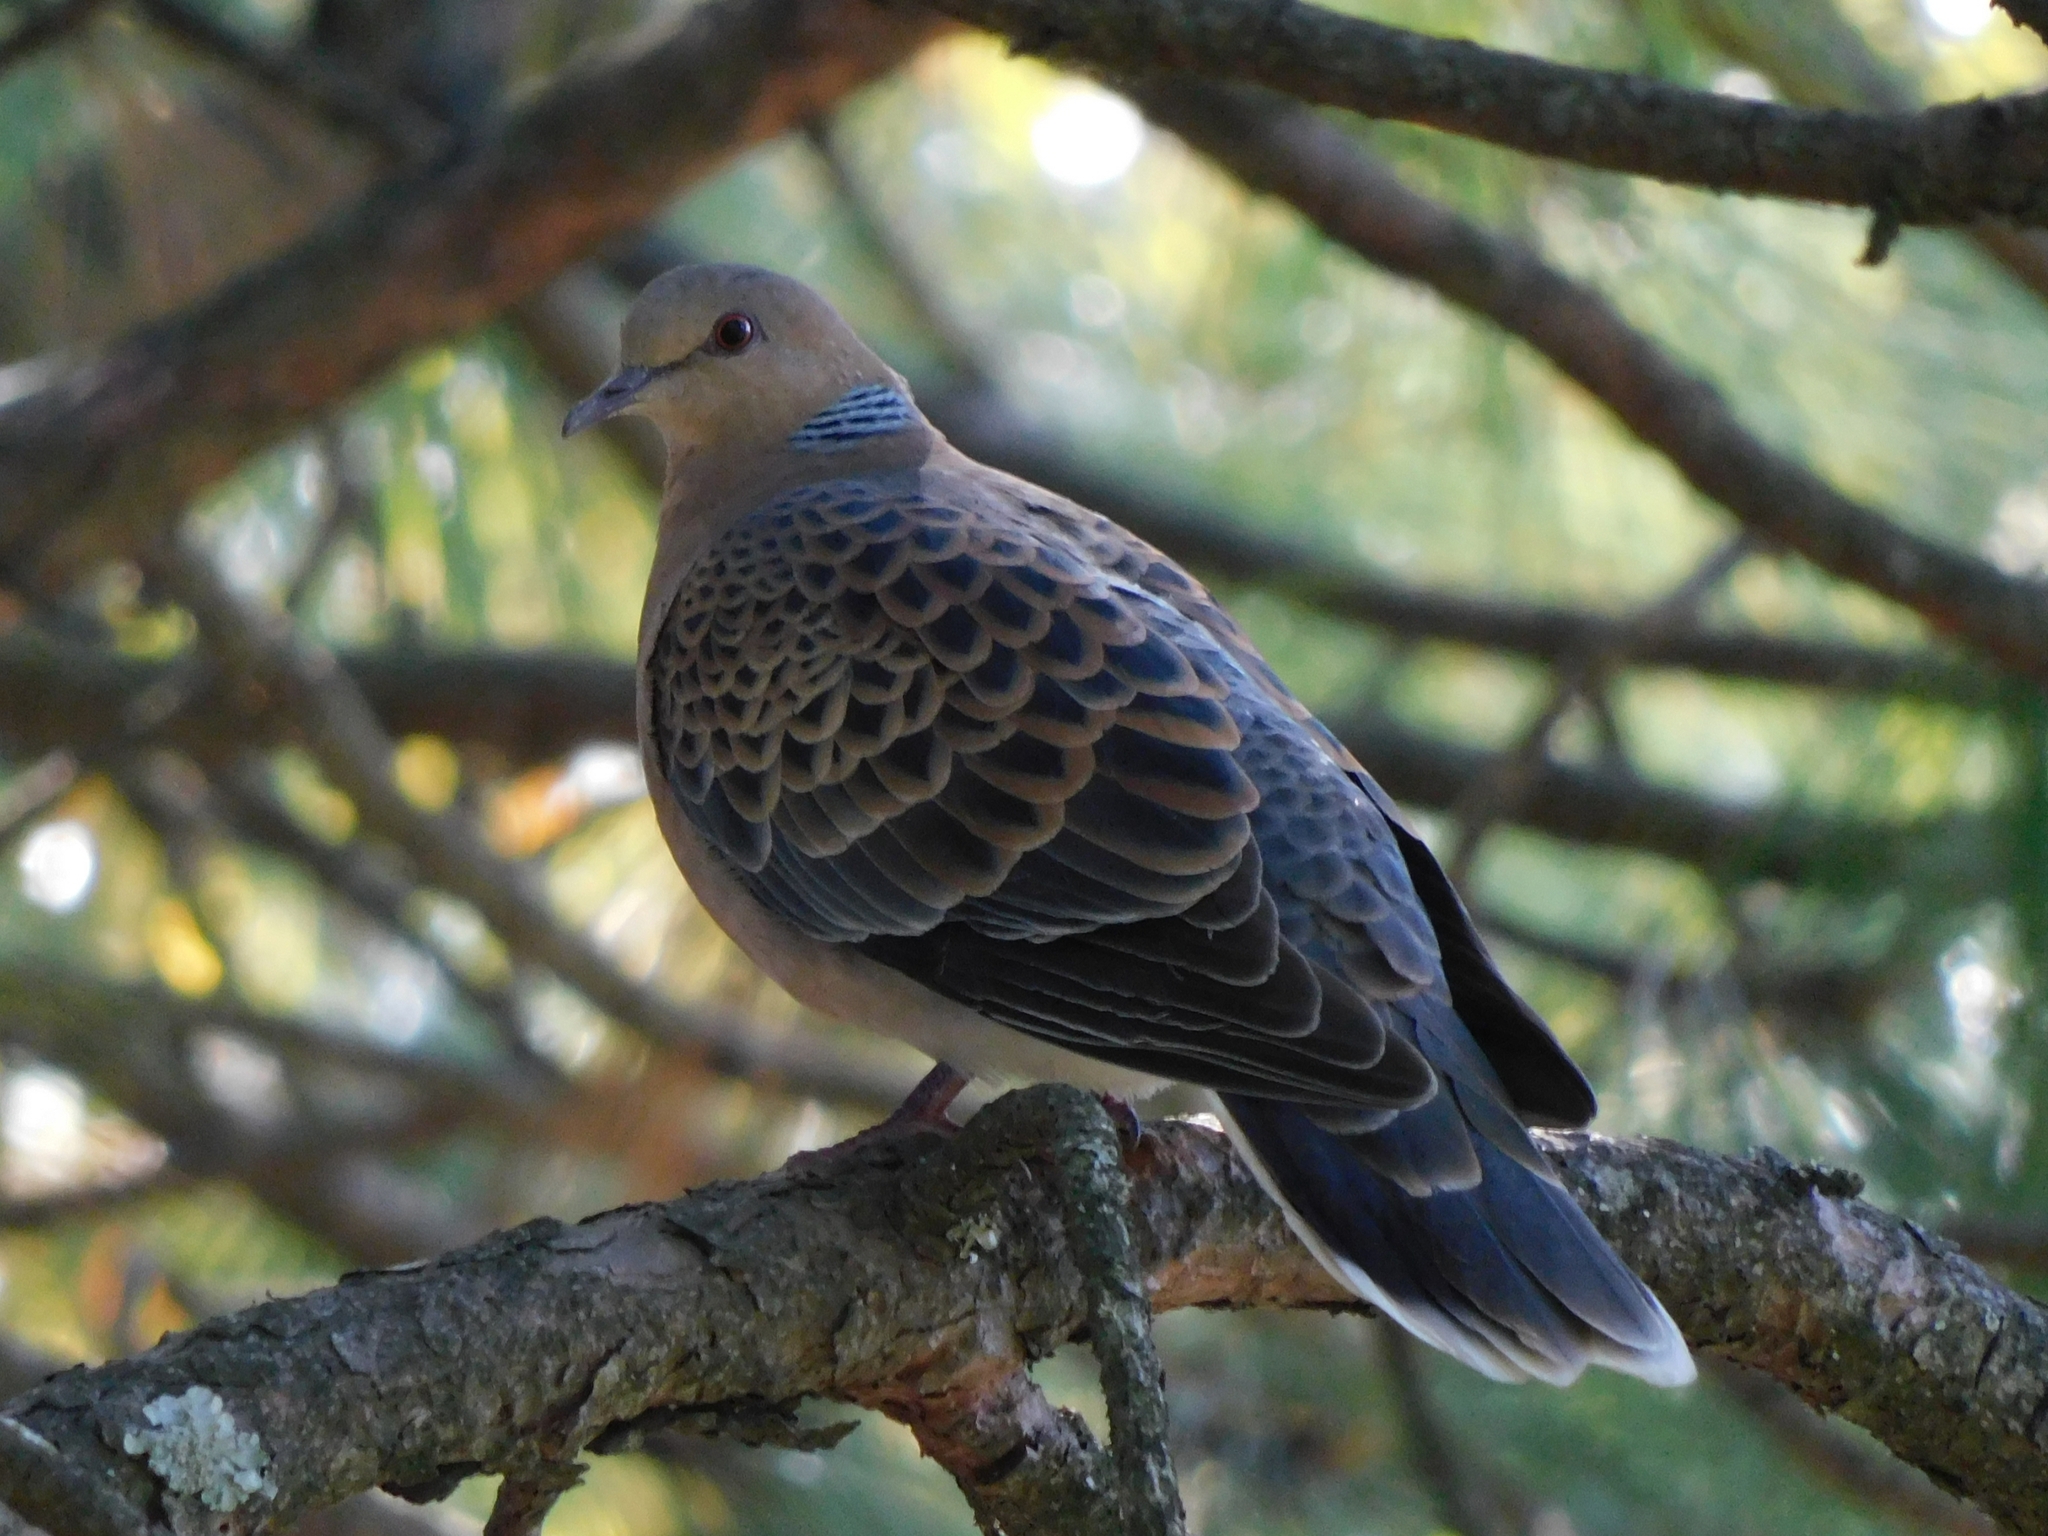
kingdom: Animalia
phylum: Chordata
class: Aves
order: Columbiformes
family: Columbidae
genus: Streptopelia
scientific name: Streptopelia orientalis
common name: Oriental turtle dove
